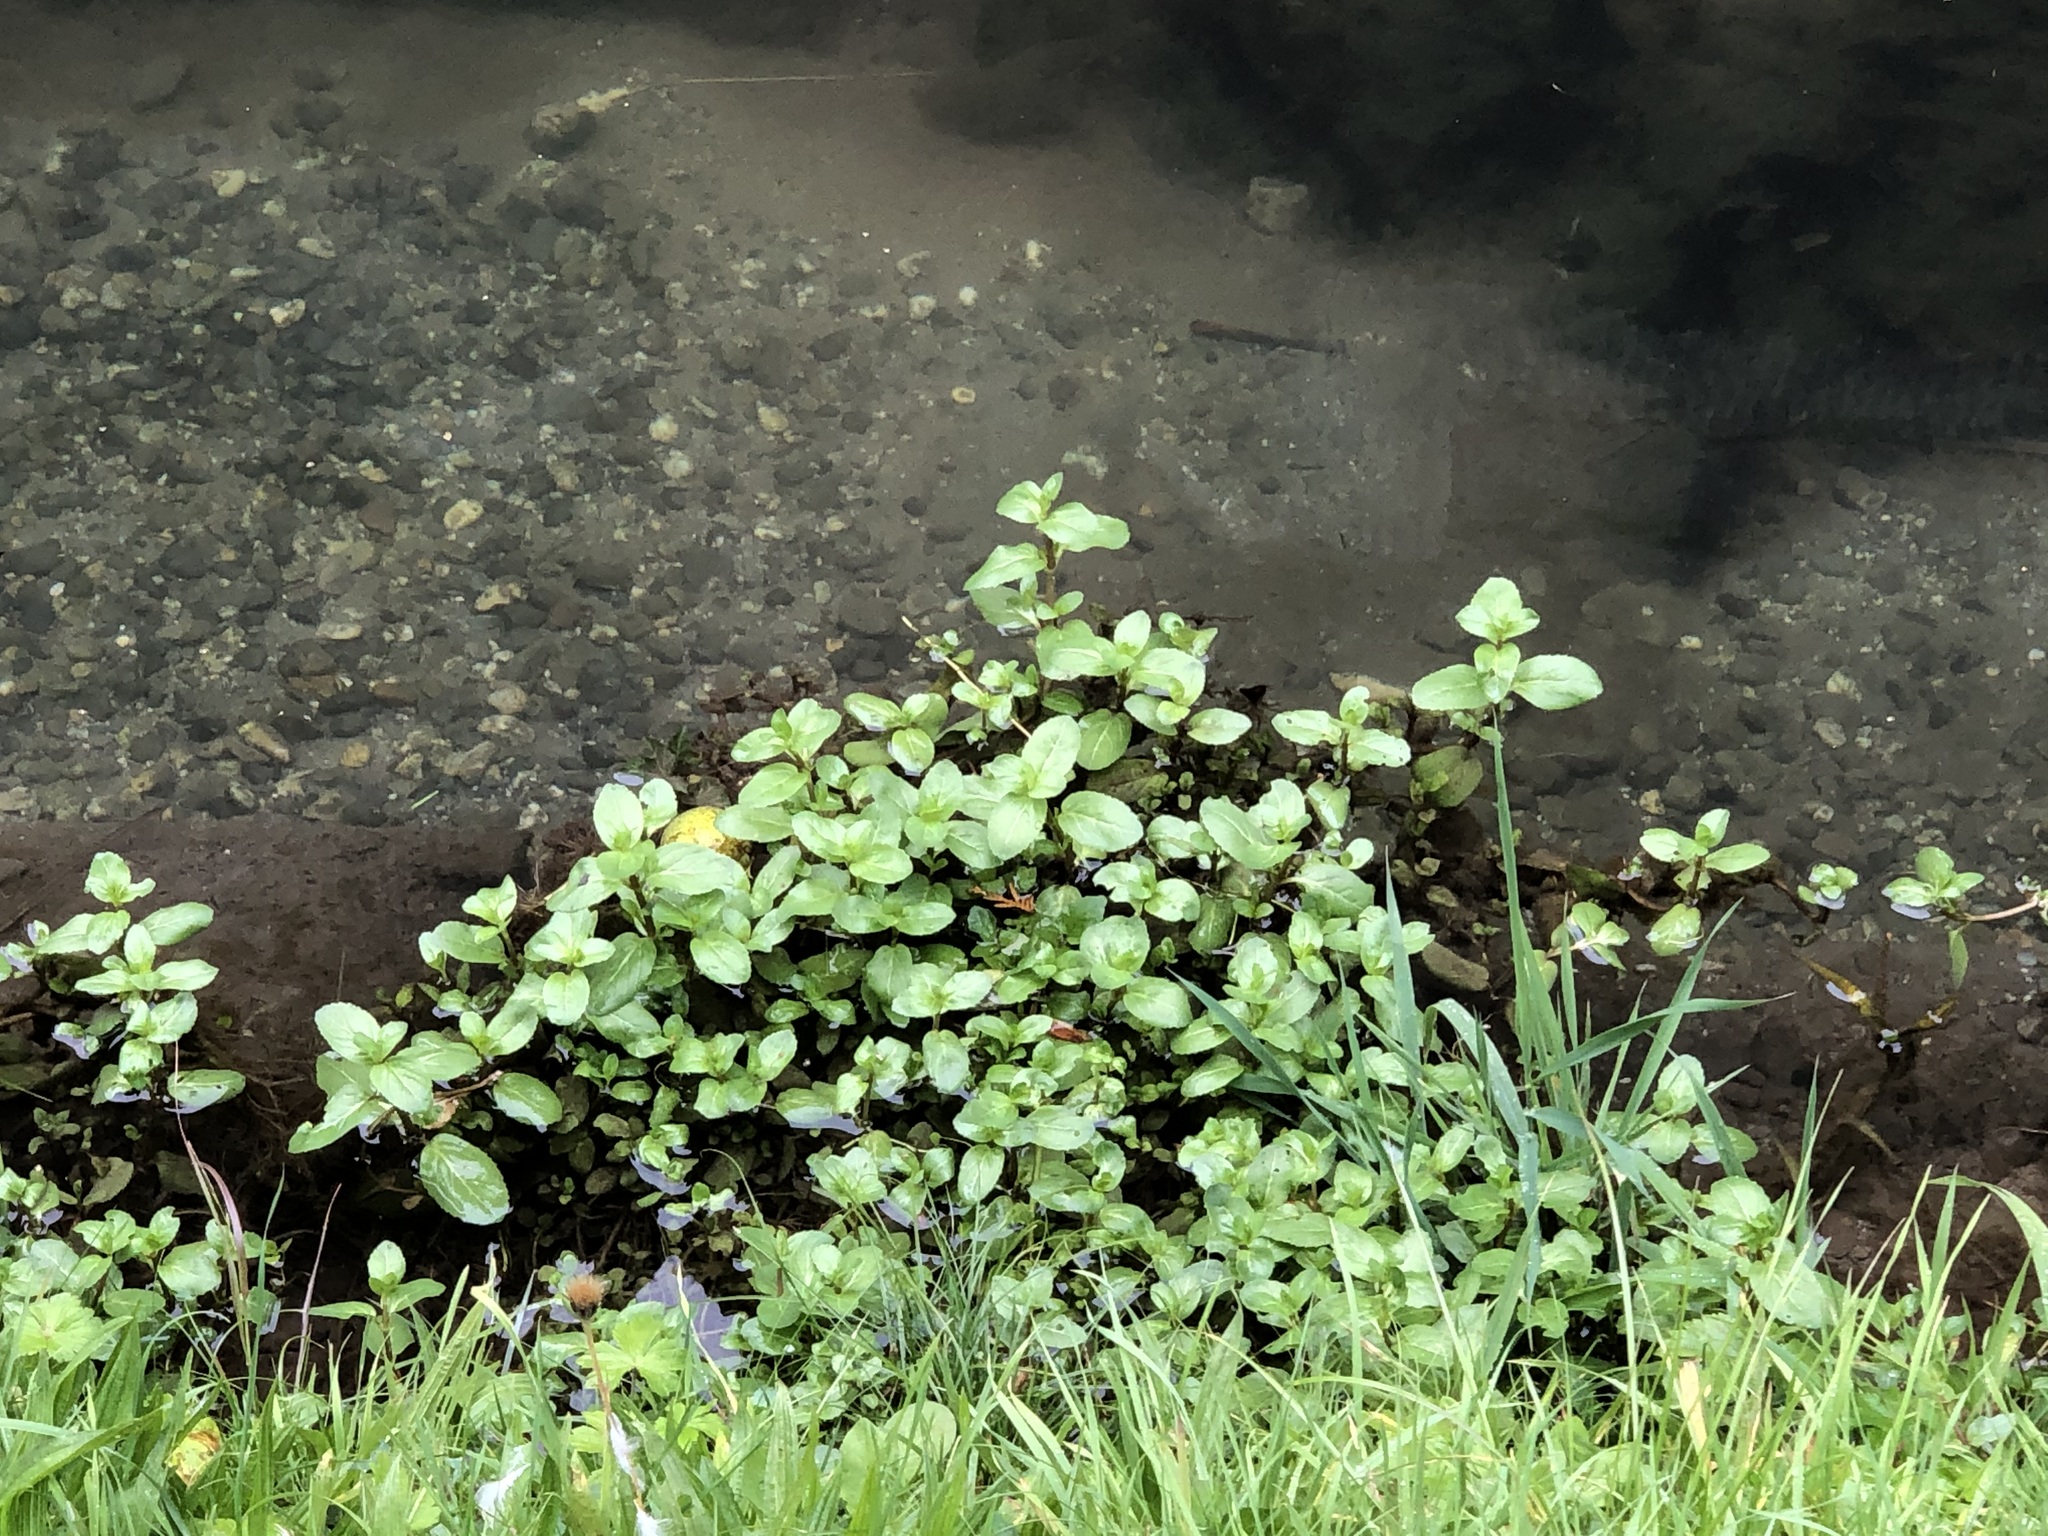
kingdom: Plantae
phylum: Tracheophyta
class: Magnoliopsida
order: Lamiales
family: Plantaginaceae
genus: Veronica
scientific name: Veronica beccabunga
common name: Brooklime
